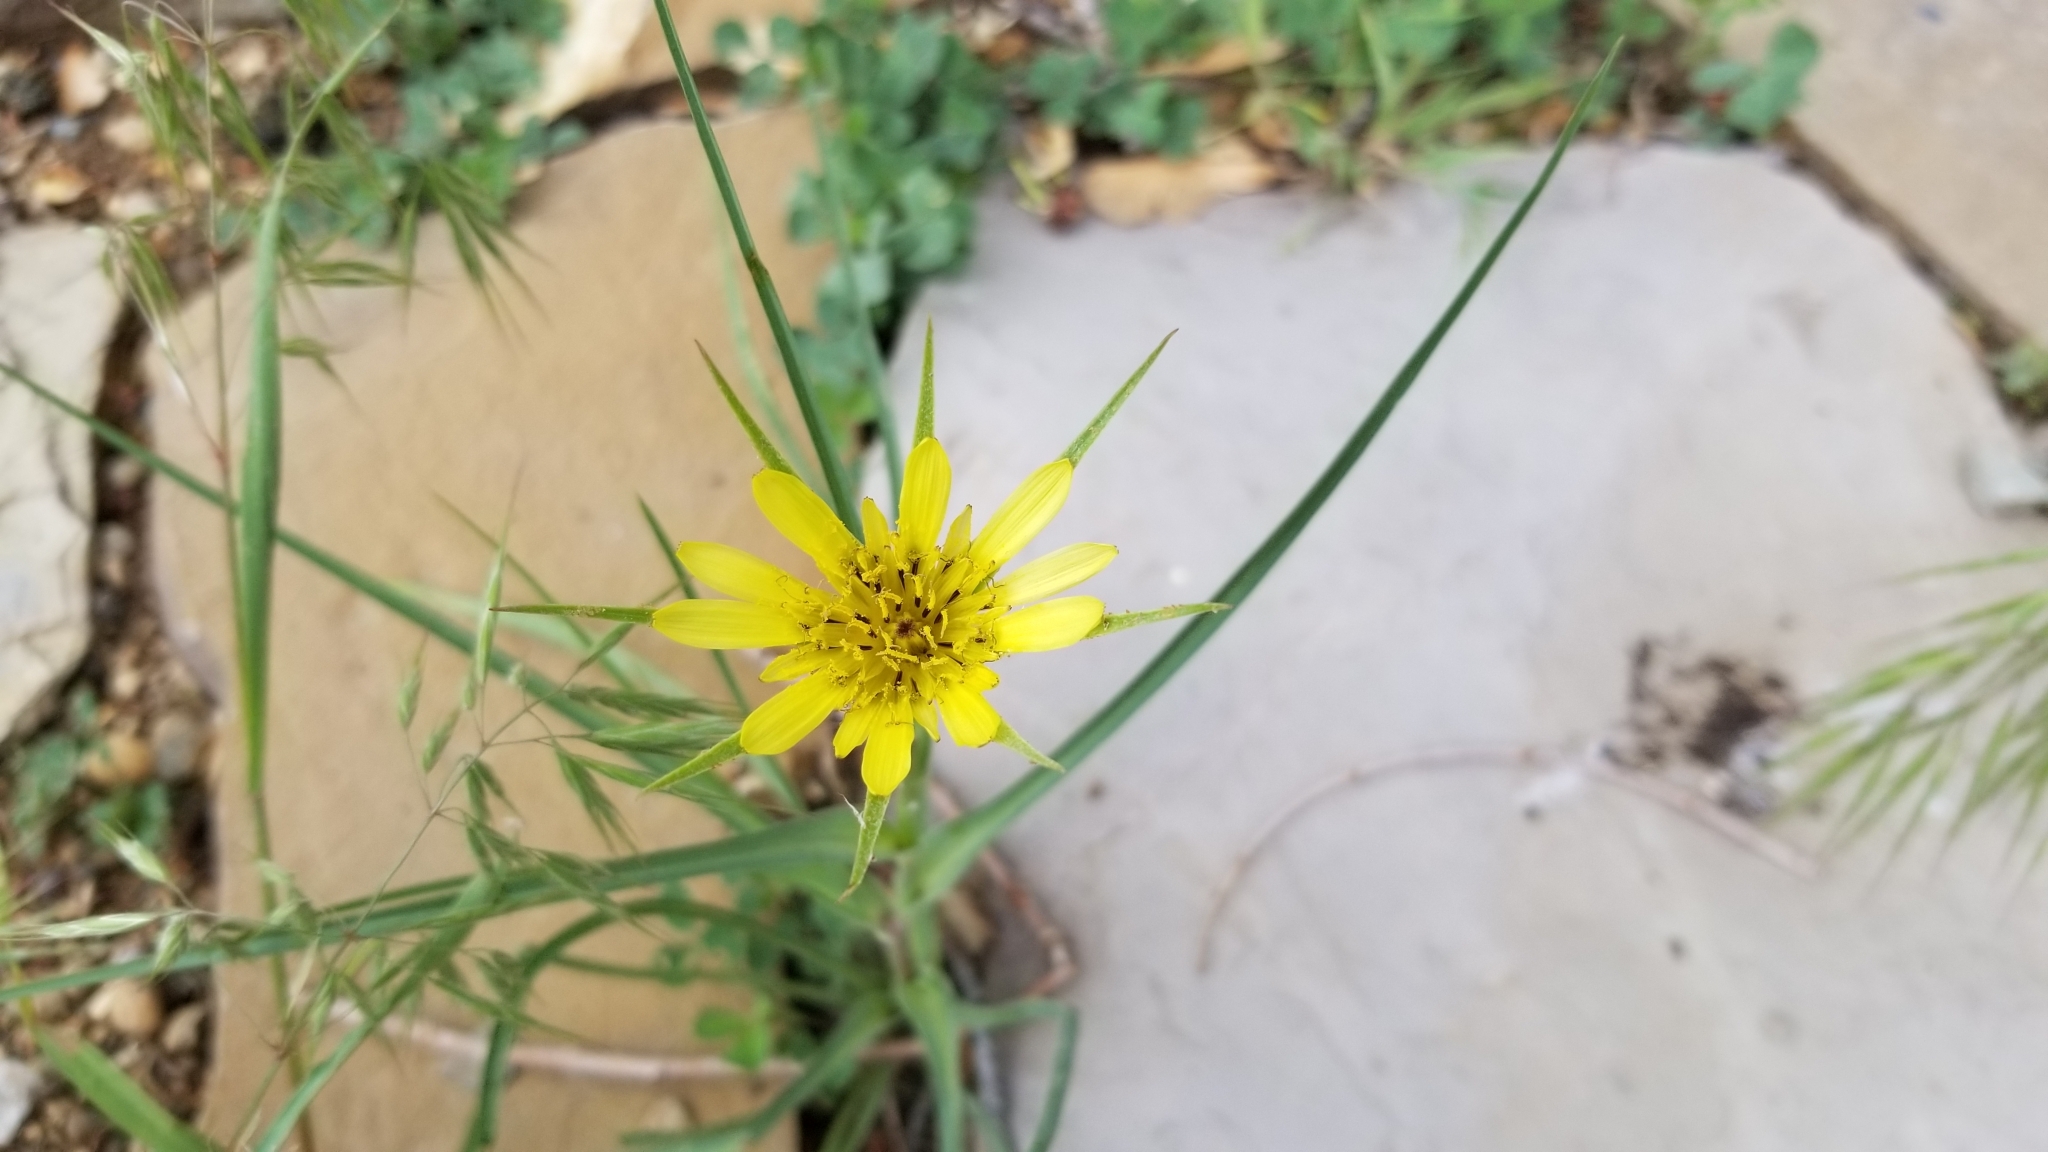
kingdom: Plantae
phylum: Tracheophyta
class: Magnoliopsida
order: Asterales
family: Asteraceae
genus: Tragopogon
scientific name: Tragopogon dubius
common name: Yellow salsify
